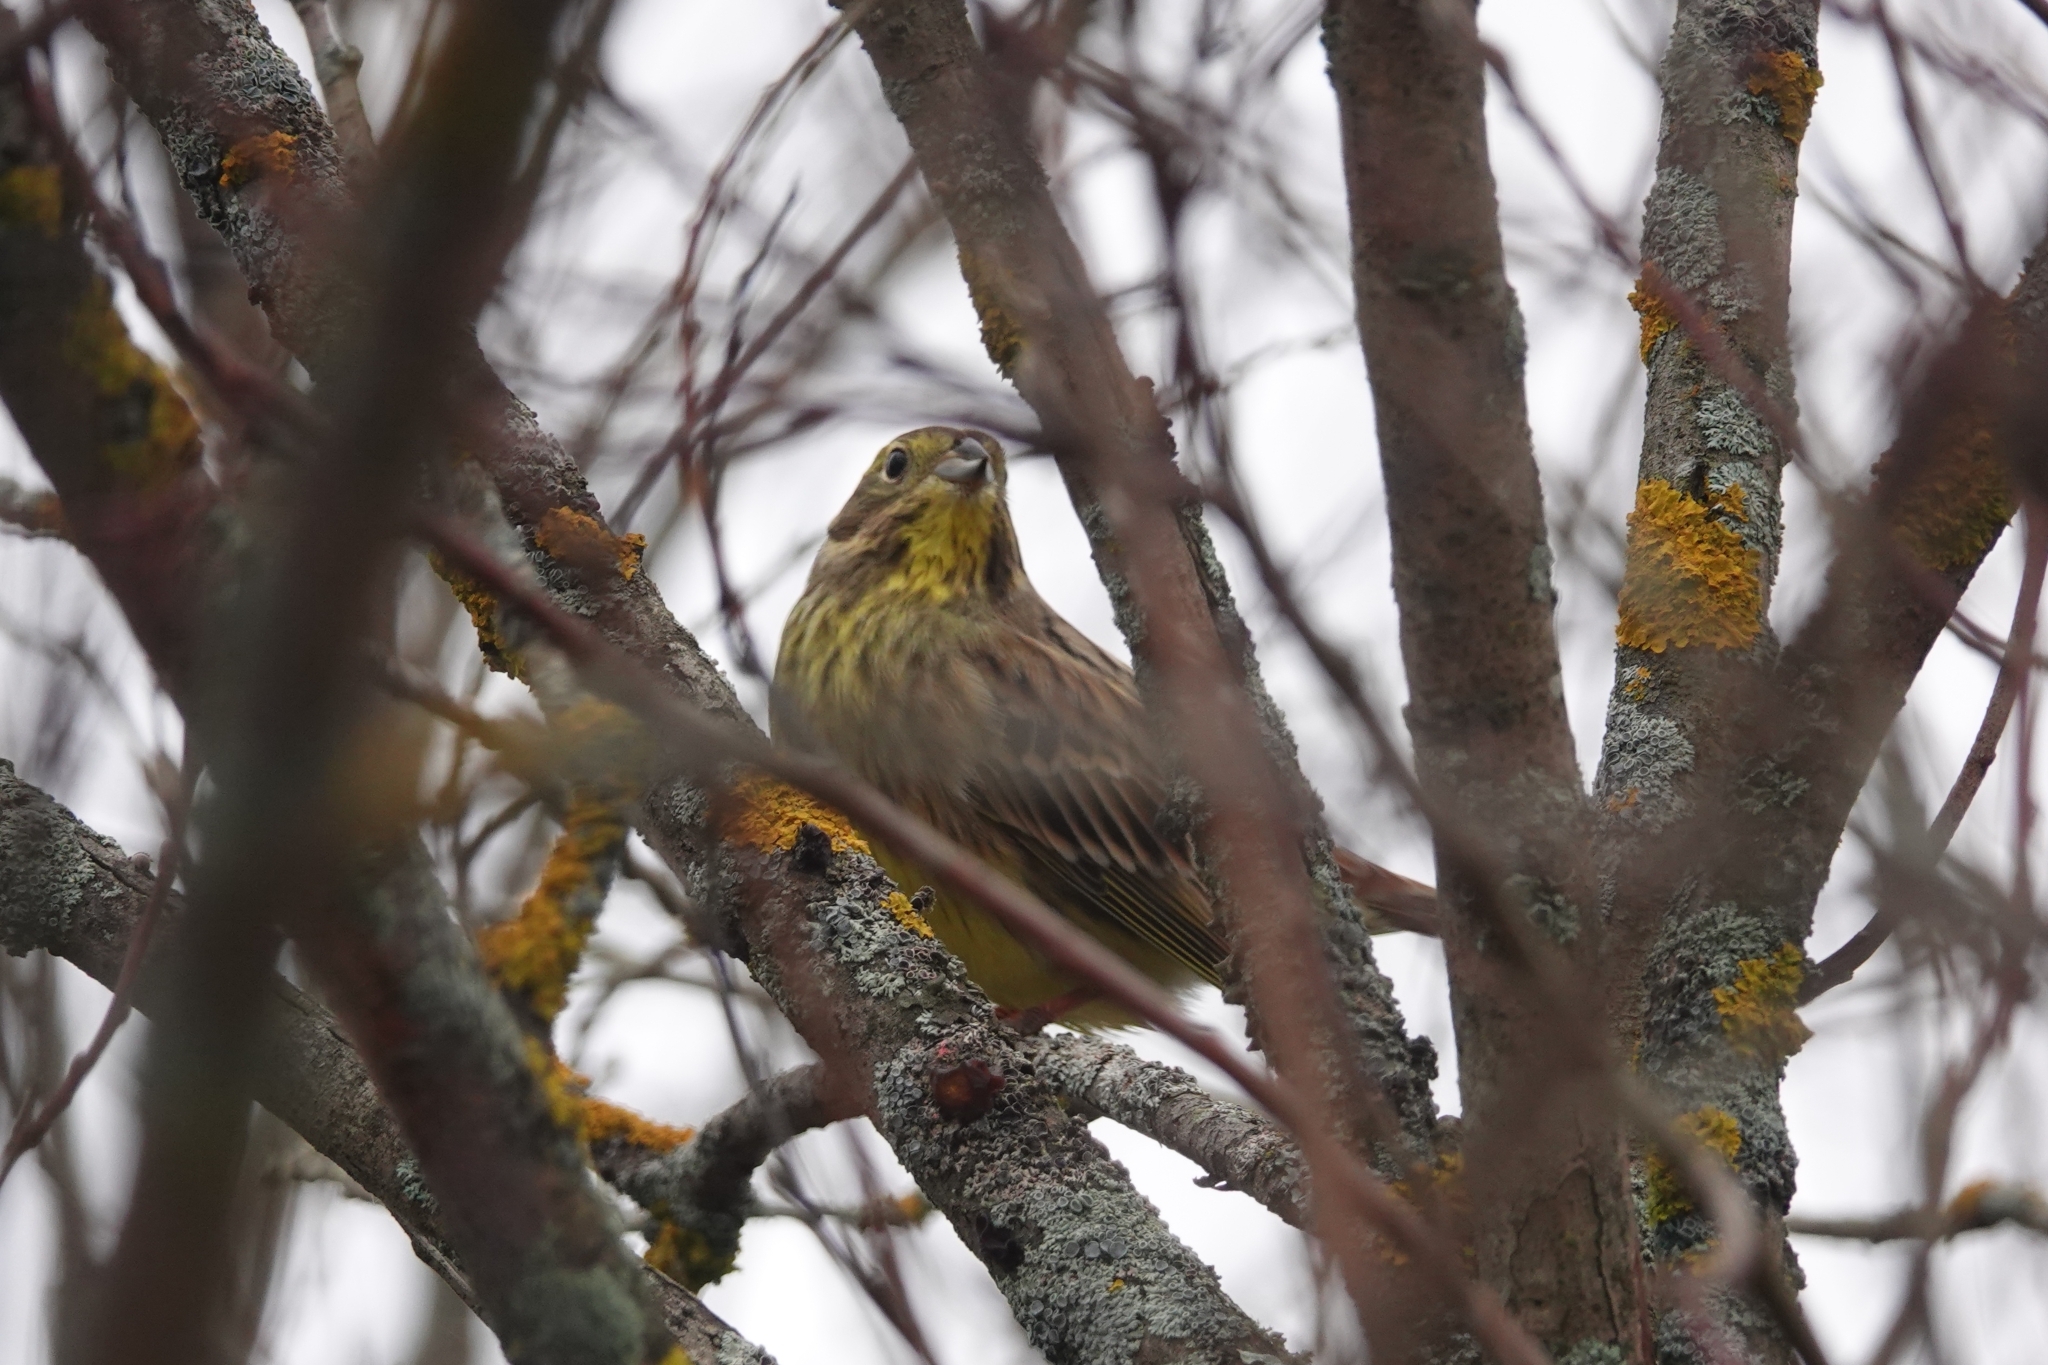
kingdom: Animalia
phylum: Chordata
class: Aves
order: Passeriformes
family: Emberizidae
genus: Emberiza
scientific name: Emberiza citrinella
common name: Yellowhammer
